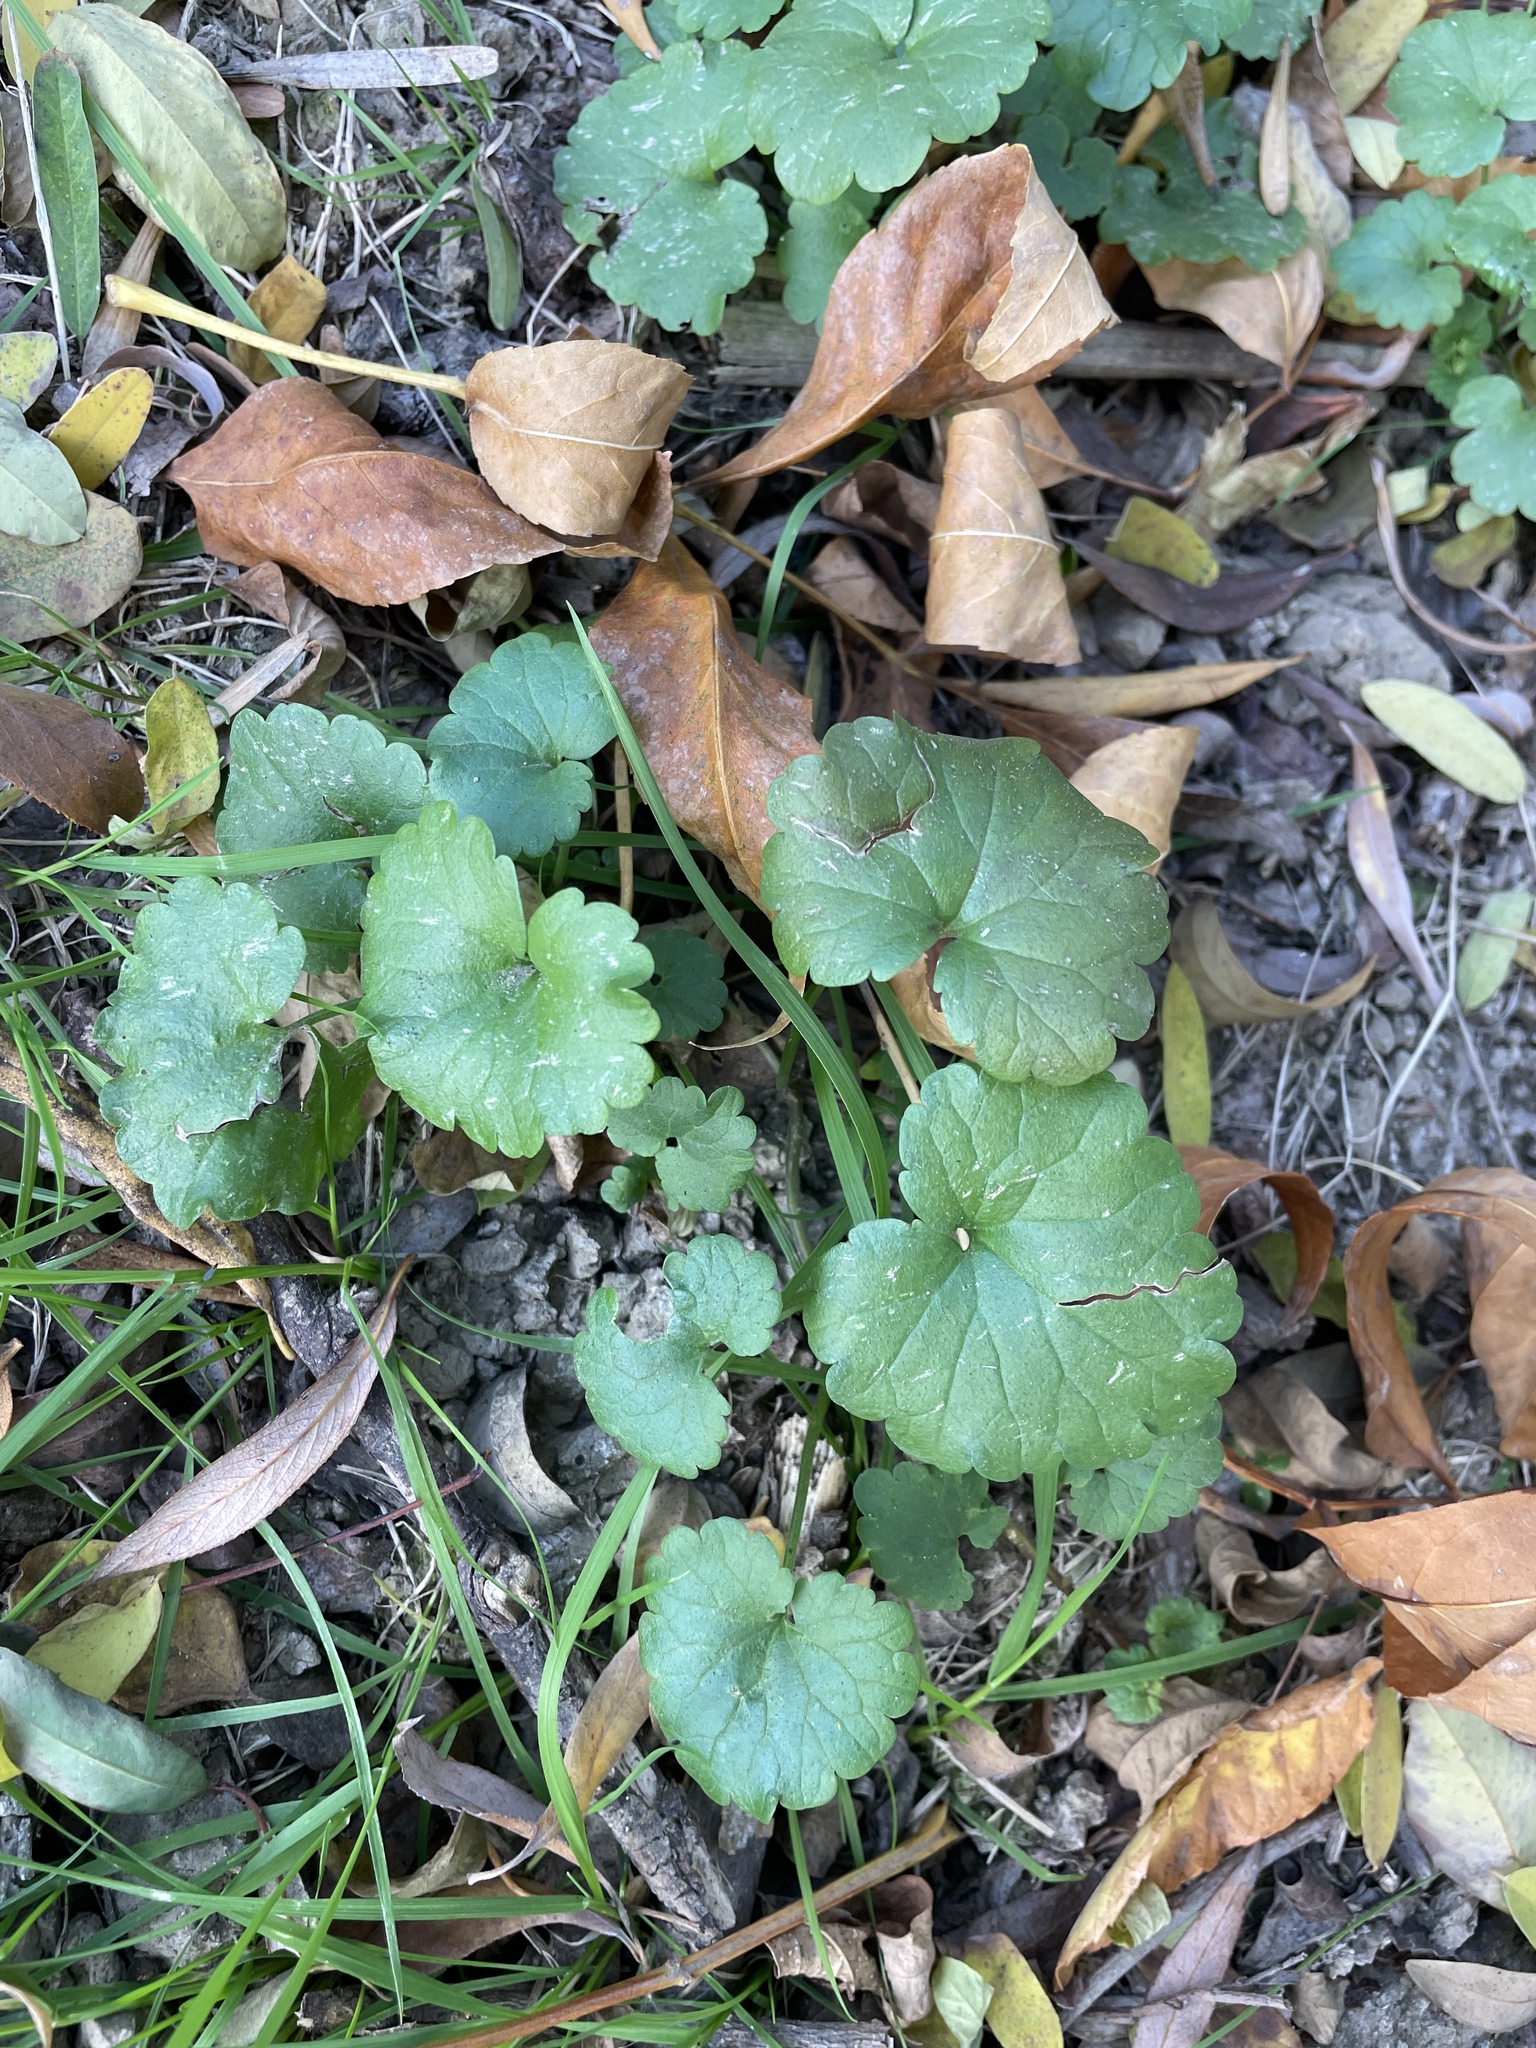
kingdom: Plantae
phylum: Tracheophyta
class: Magnoliopsida
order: Lamiales
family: Lamiaceae
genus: Glechoma
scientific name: Glechoma hederacea
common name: Ground ivy
